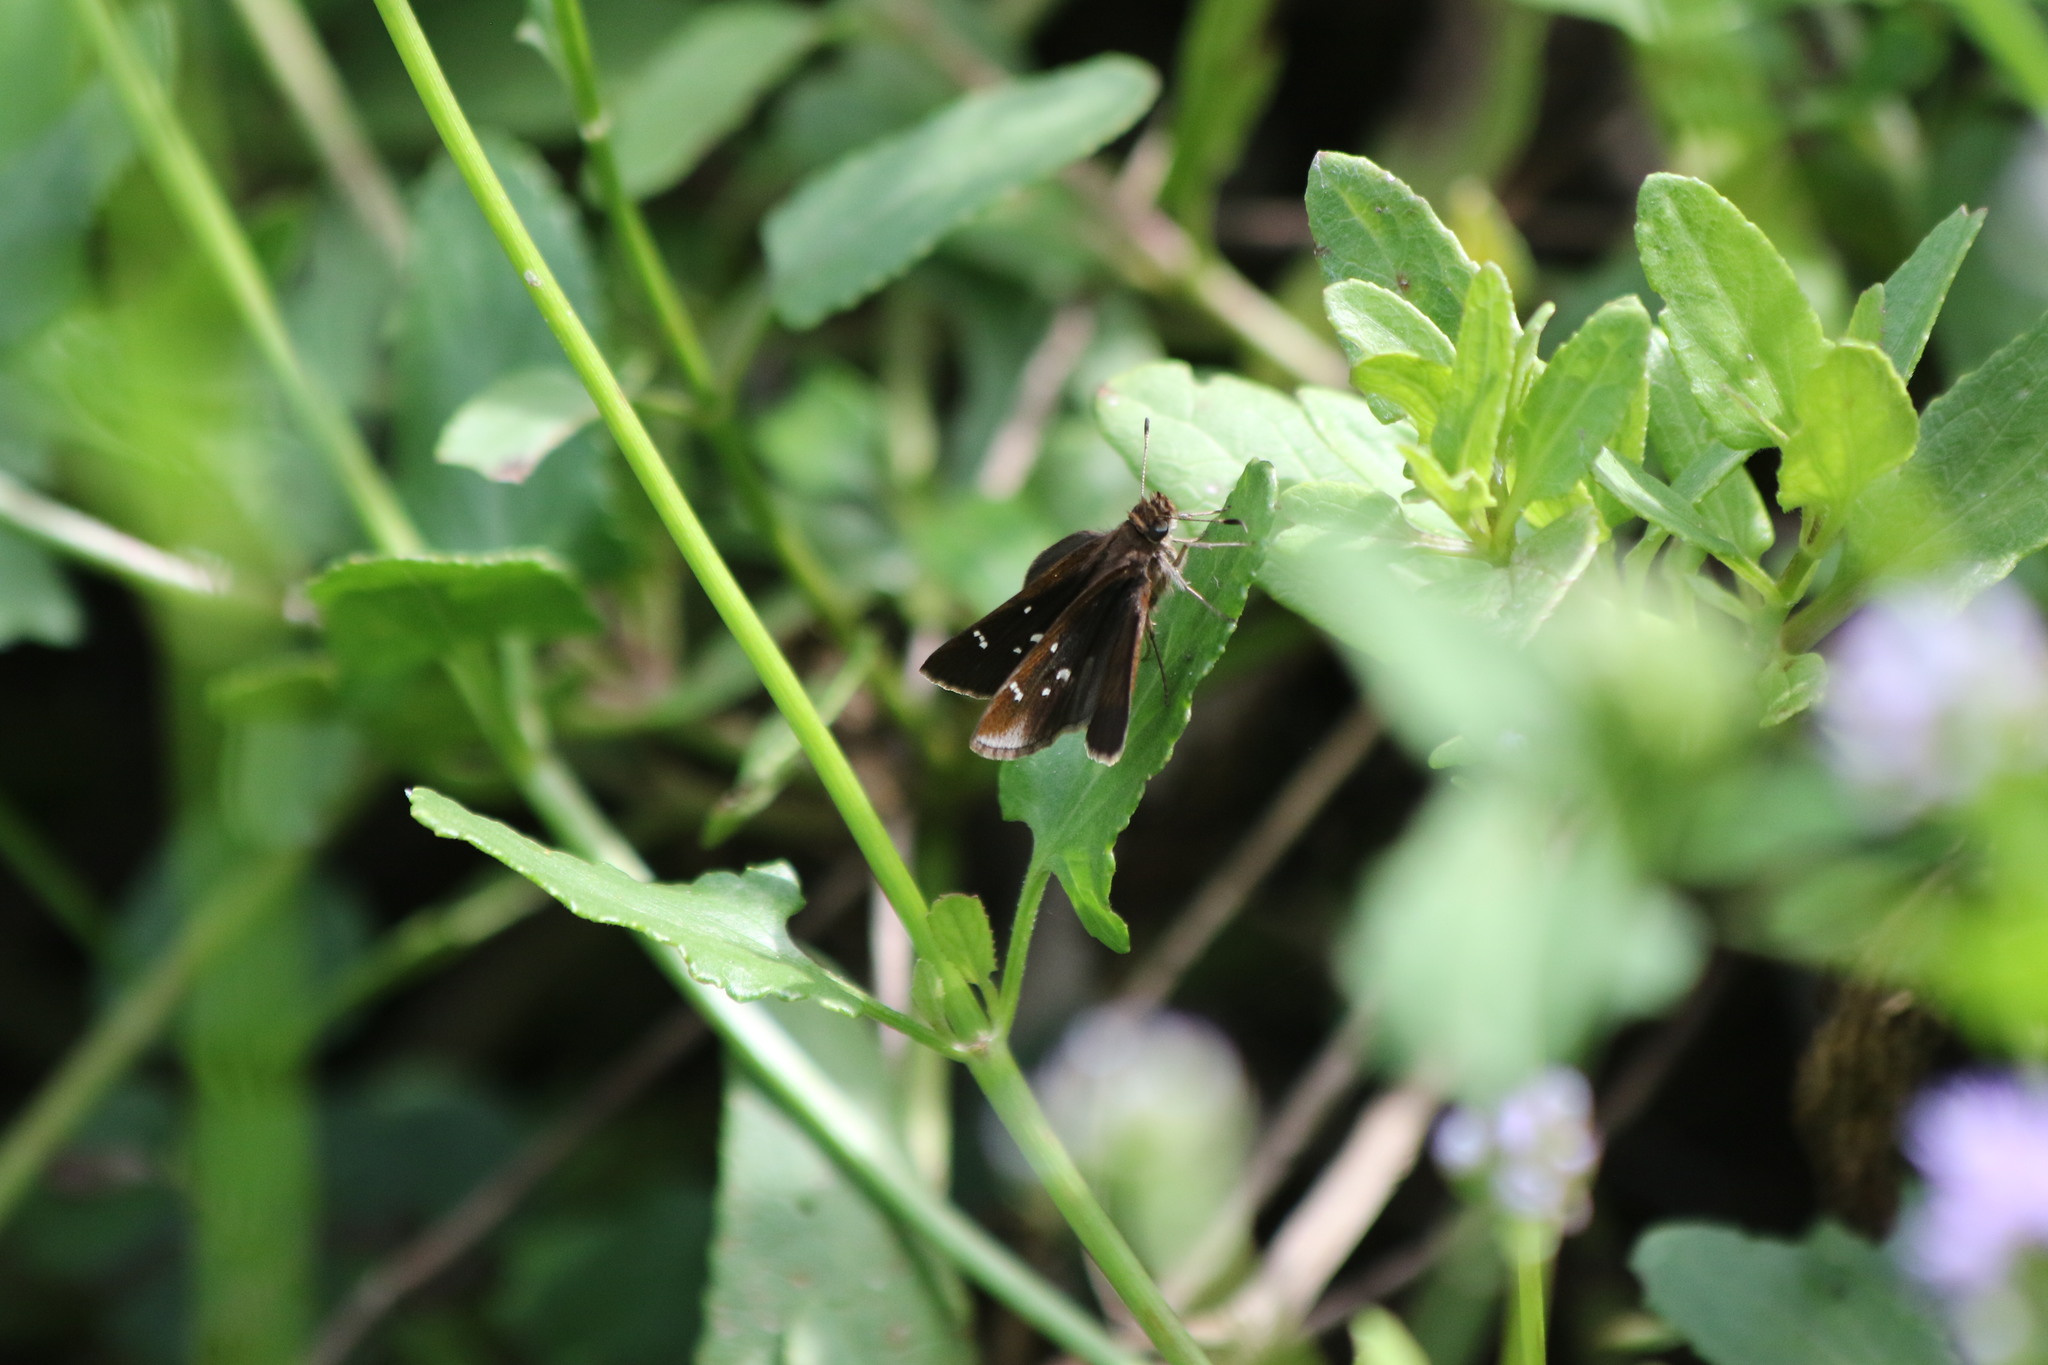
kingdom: Animalia
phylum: Arthropoda
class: Insecta
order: Lepidoptera
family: Hesperiidae
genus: Lerema
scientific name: Lerema accius
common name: Clouded skipper
